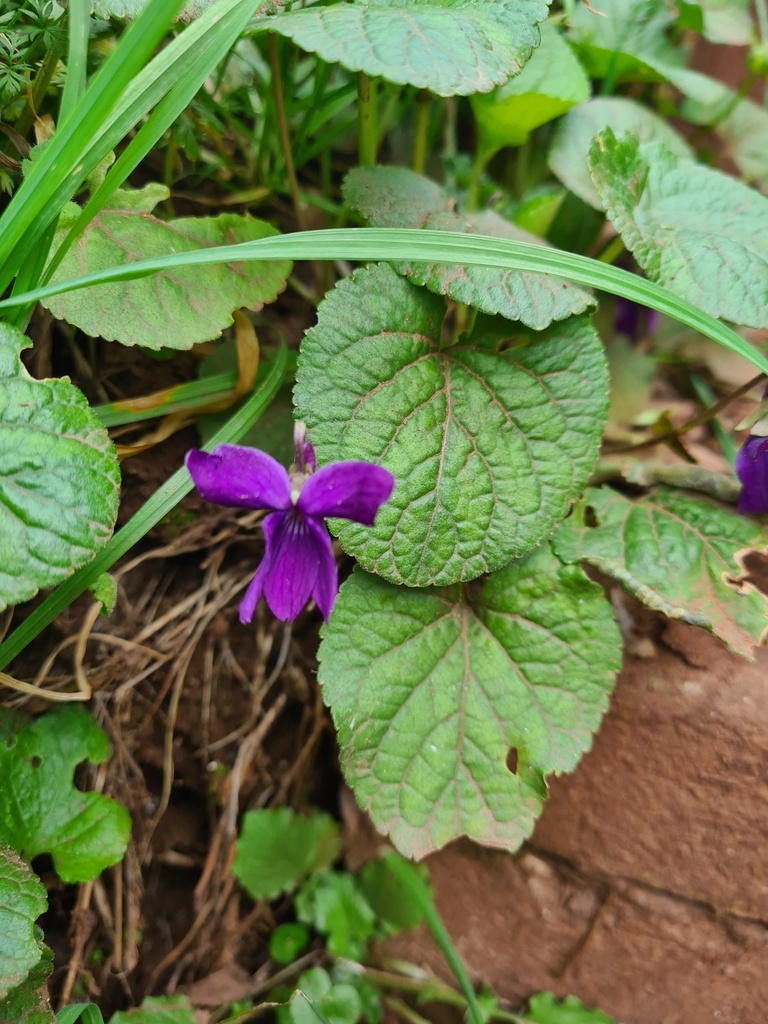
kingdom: Plantae
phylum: Tracheophyta
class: Magnoliopsida
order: Malpighiales
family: Violaceae
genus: Viola
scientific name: Viola odorata
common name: Sweet violet
